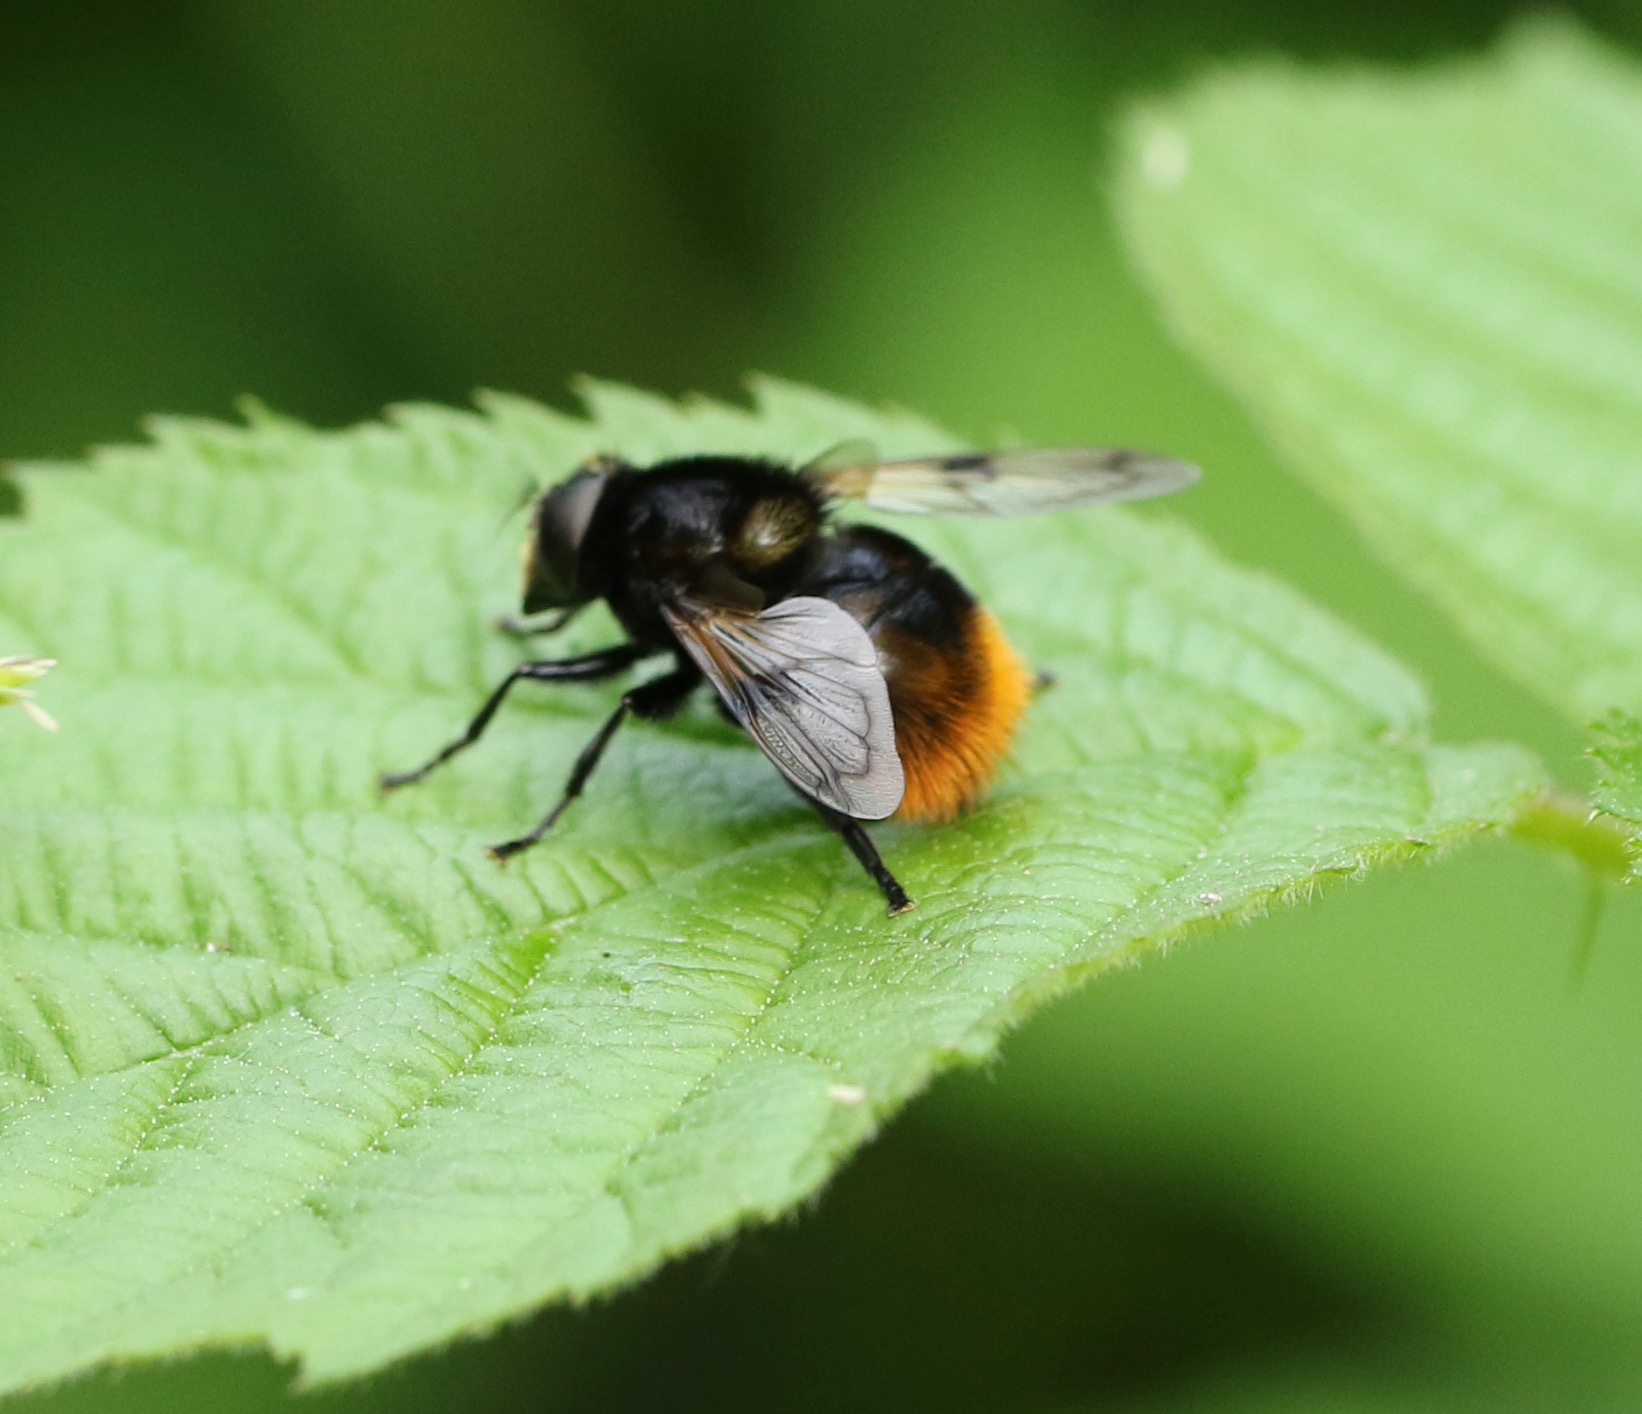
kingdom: Animalia
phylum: Arthropoda
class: Insecta
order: Diptera
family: Syrphidae
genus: Volucella
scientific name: Volucella bombylans
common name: Bumble bee hover fly
